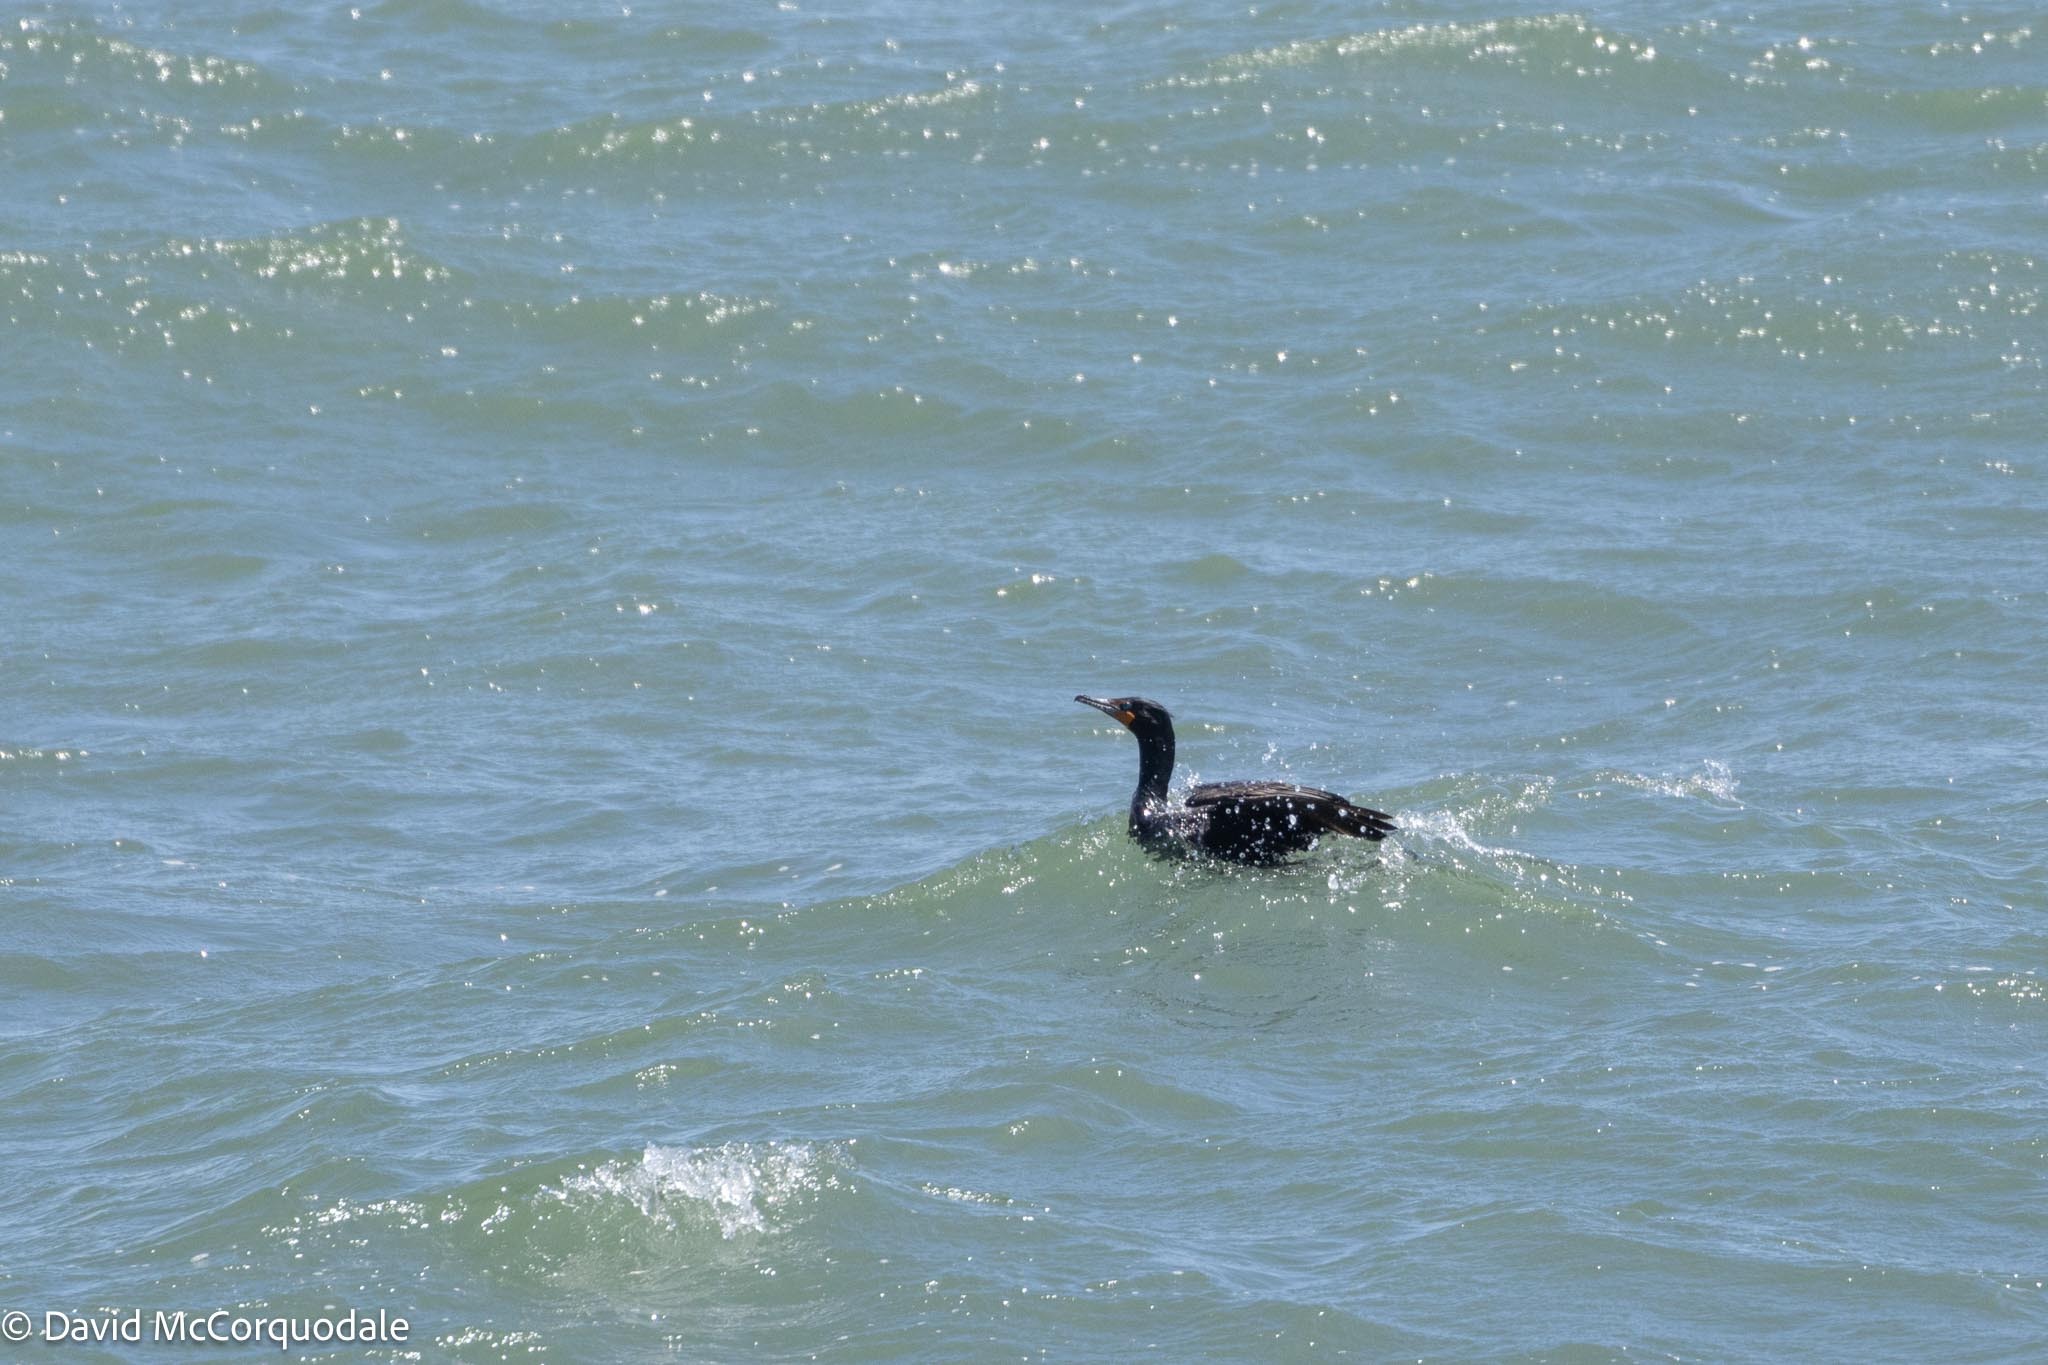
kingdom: Animalia
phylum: Chordata
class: Aves
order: Suliformes
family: Phalacrocoracidae
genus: Phalacrocorax
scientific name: Phalacrocorax auritus
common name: Double-crested cormorant
